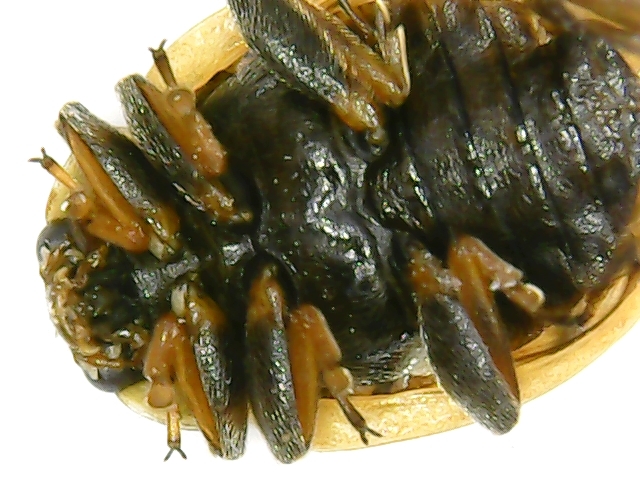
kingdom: Animalia
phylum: Arthropoda
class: Insecta
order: Coleoptera
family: Coccinellidae
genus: Hippodamia
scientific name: Hippodamia variegata
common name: Ladybird beetle
